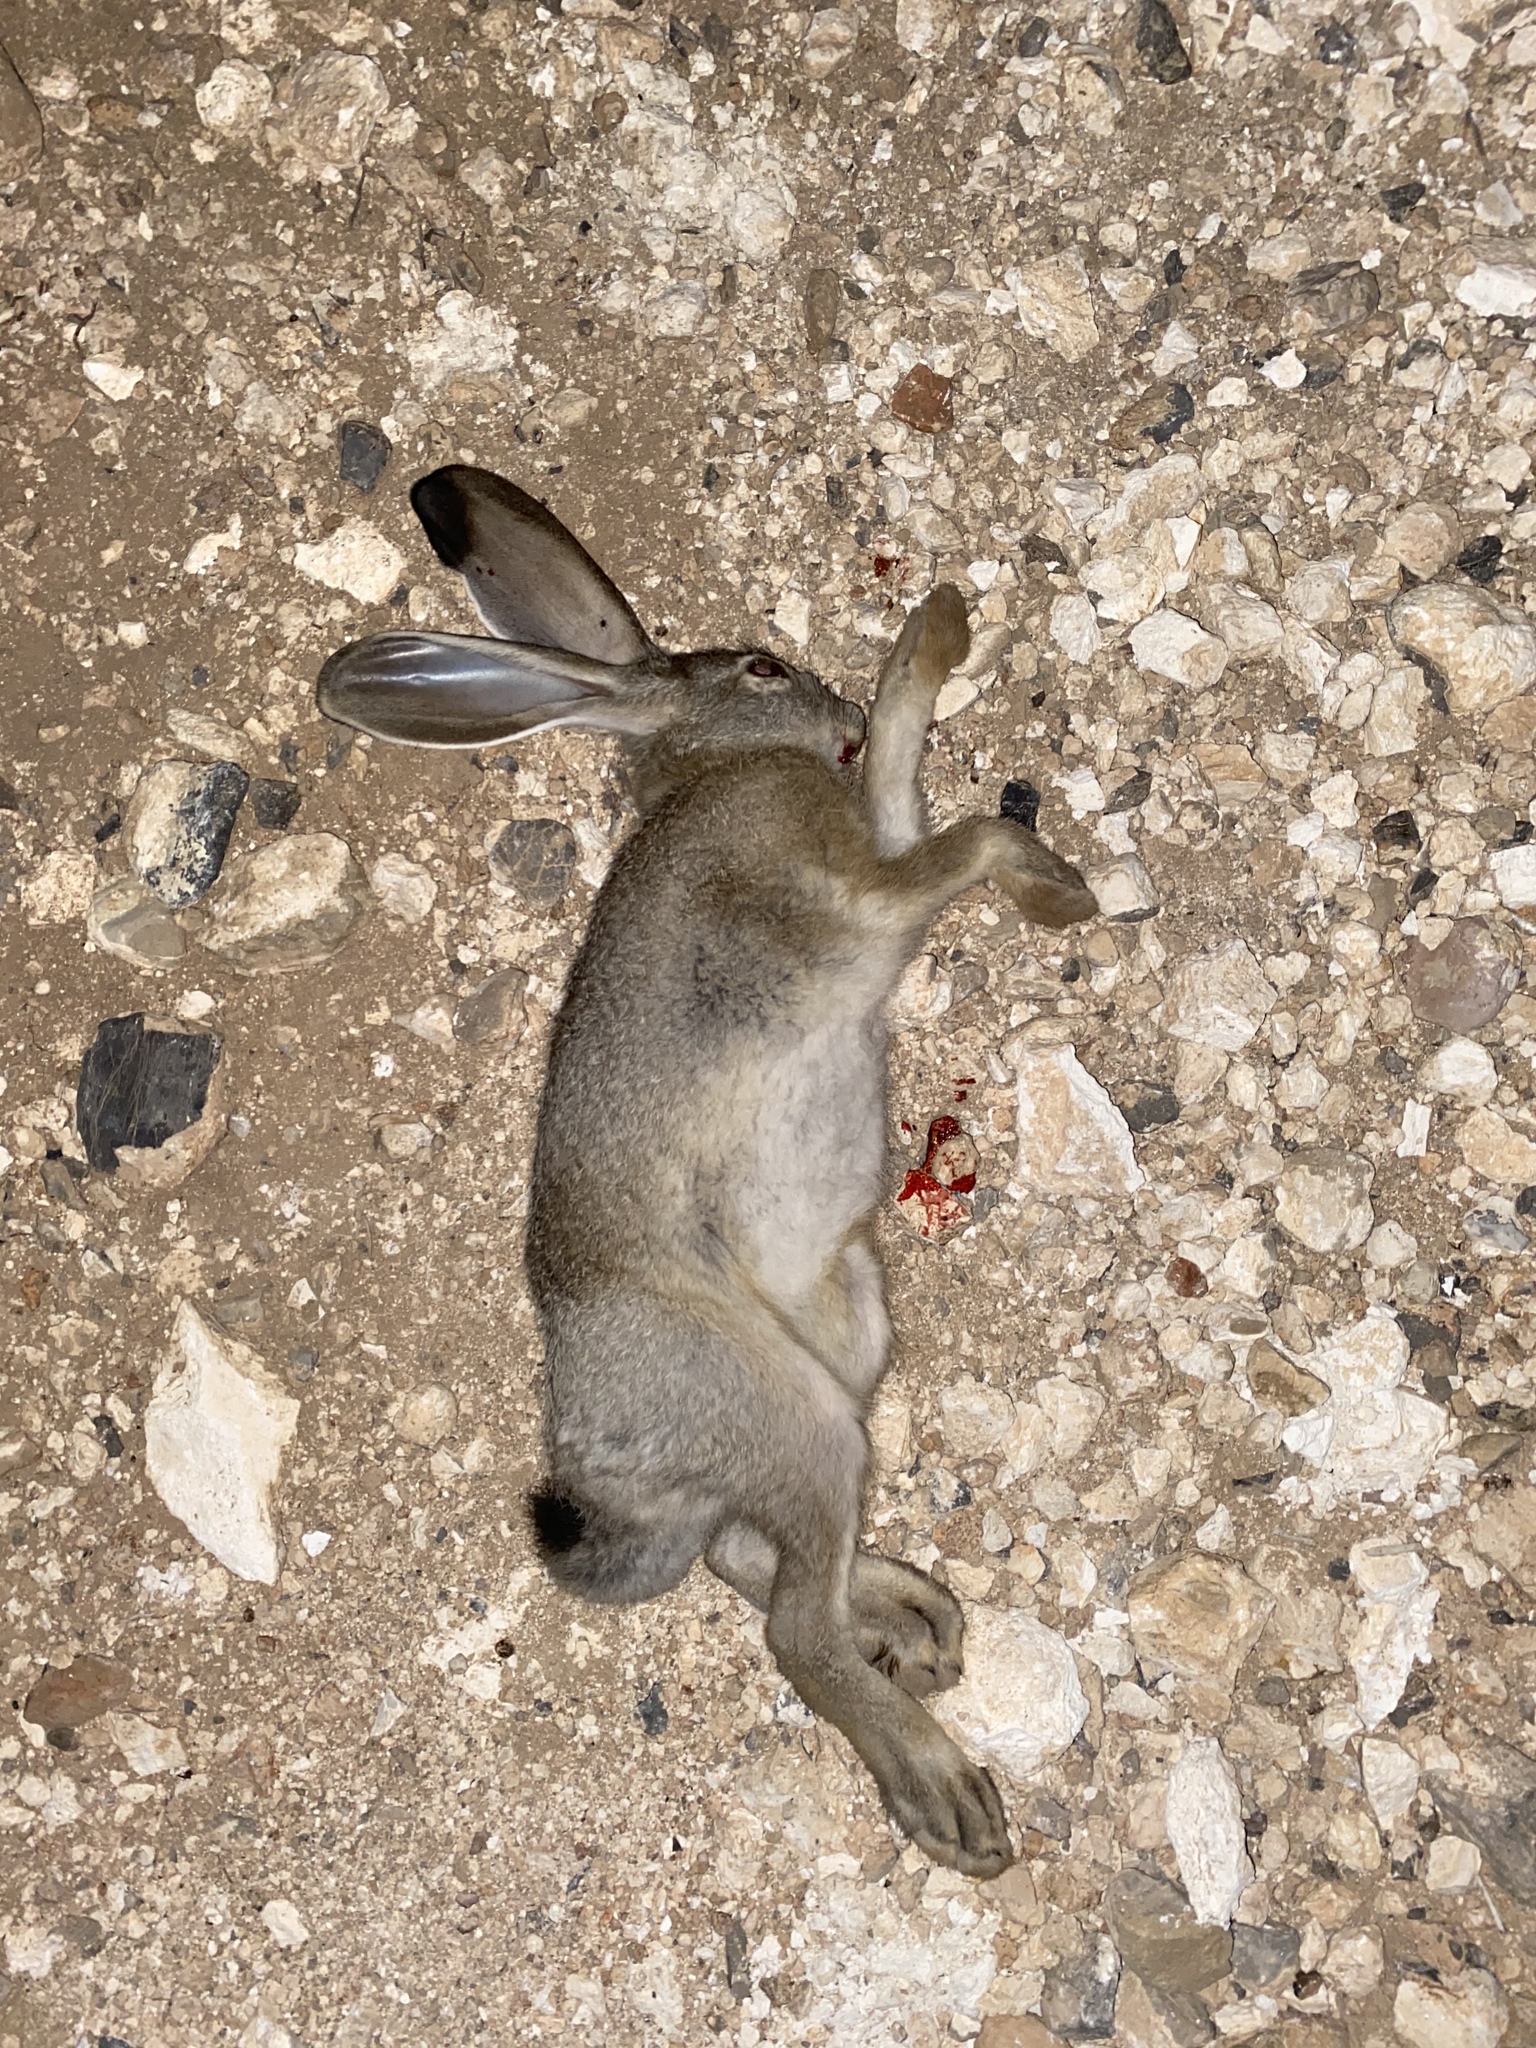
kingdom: Animalia
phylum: Chordata
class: Mammalia
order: Lagomorpha
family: Leporidae
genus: Lepus
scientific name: Lepus californicus
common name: Black-tailed jackrabbit
